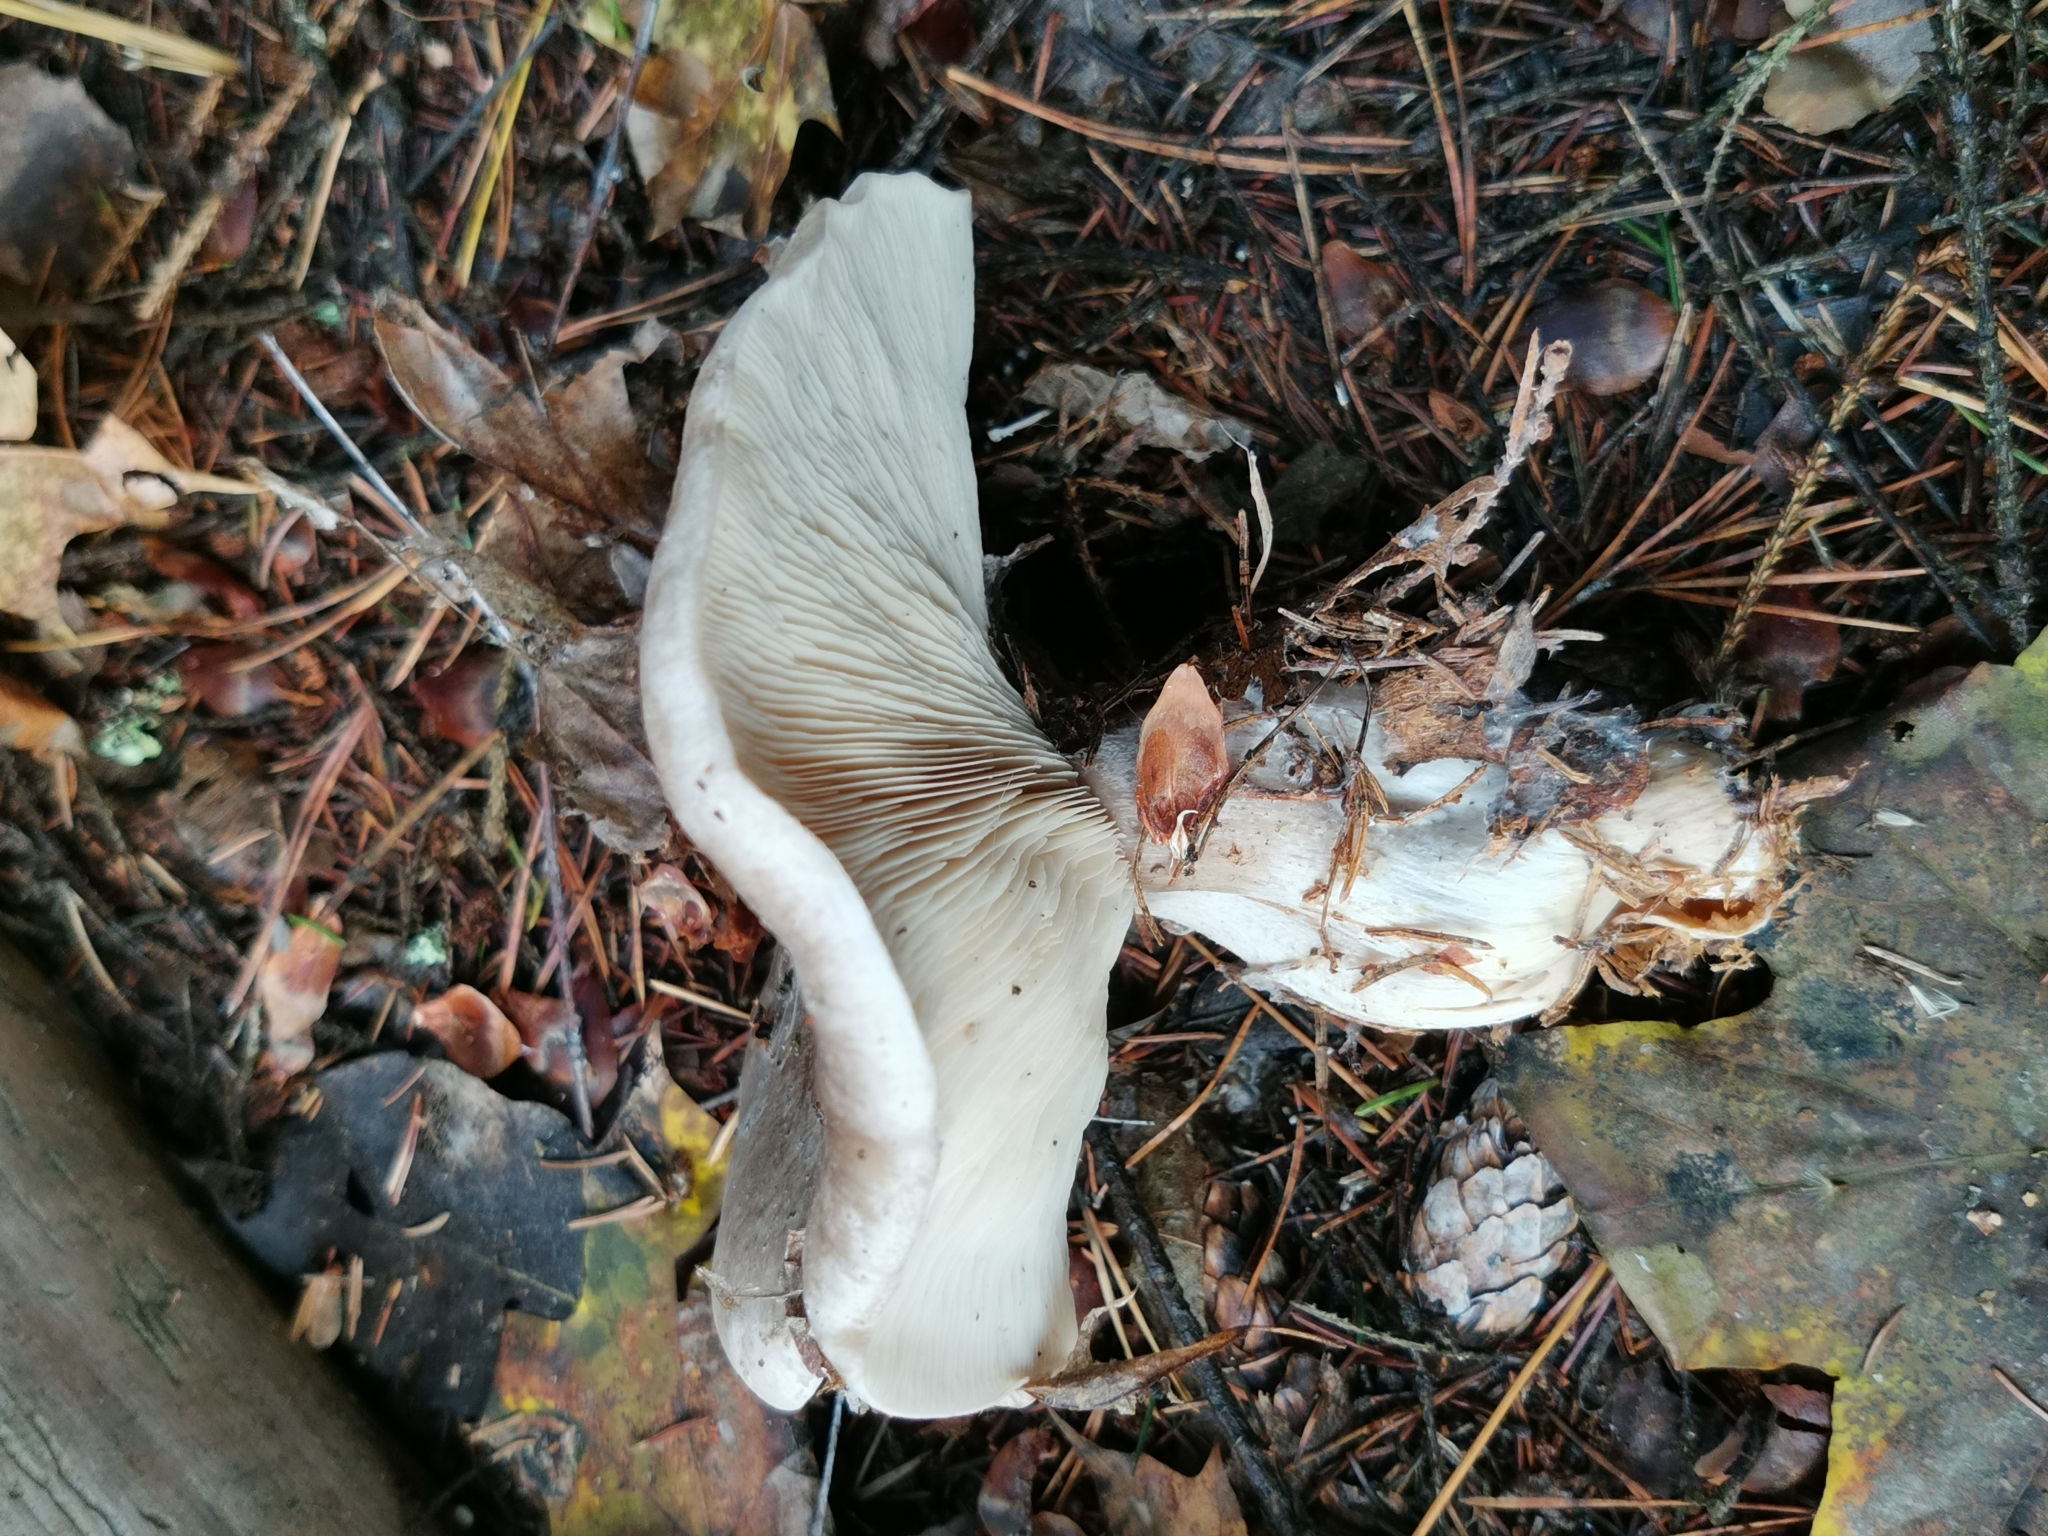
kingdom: Fungi
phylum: Basidiomycota
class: Agaricomycetes
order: Agaricales
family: Tricholomataceae
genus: Clitocybe
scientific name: Clitocybe nebularis
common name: Clouded agaric
